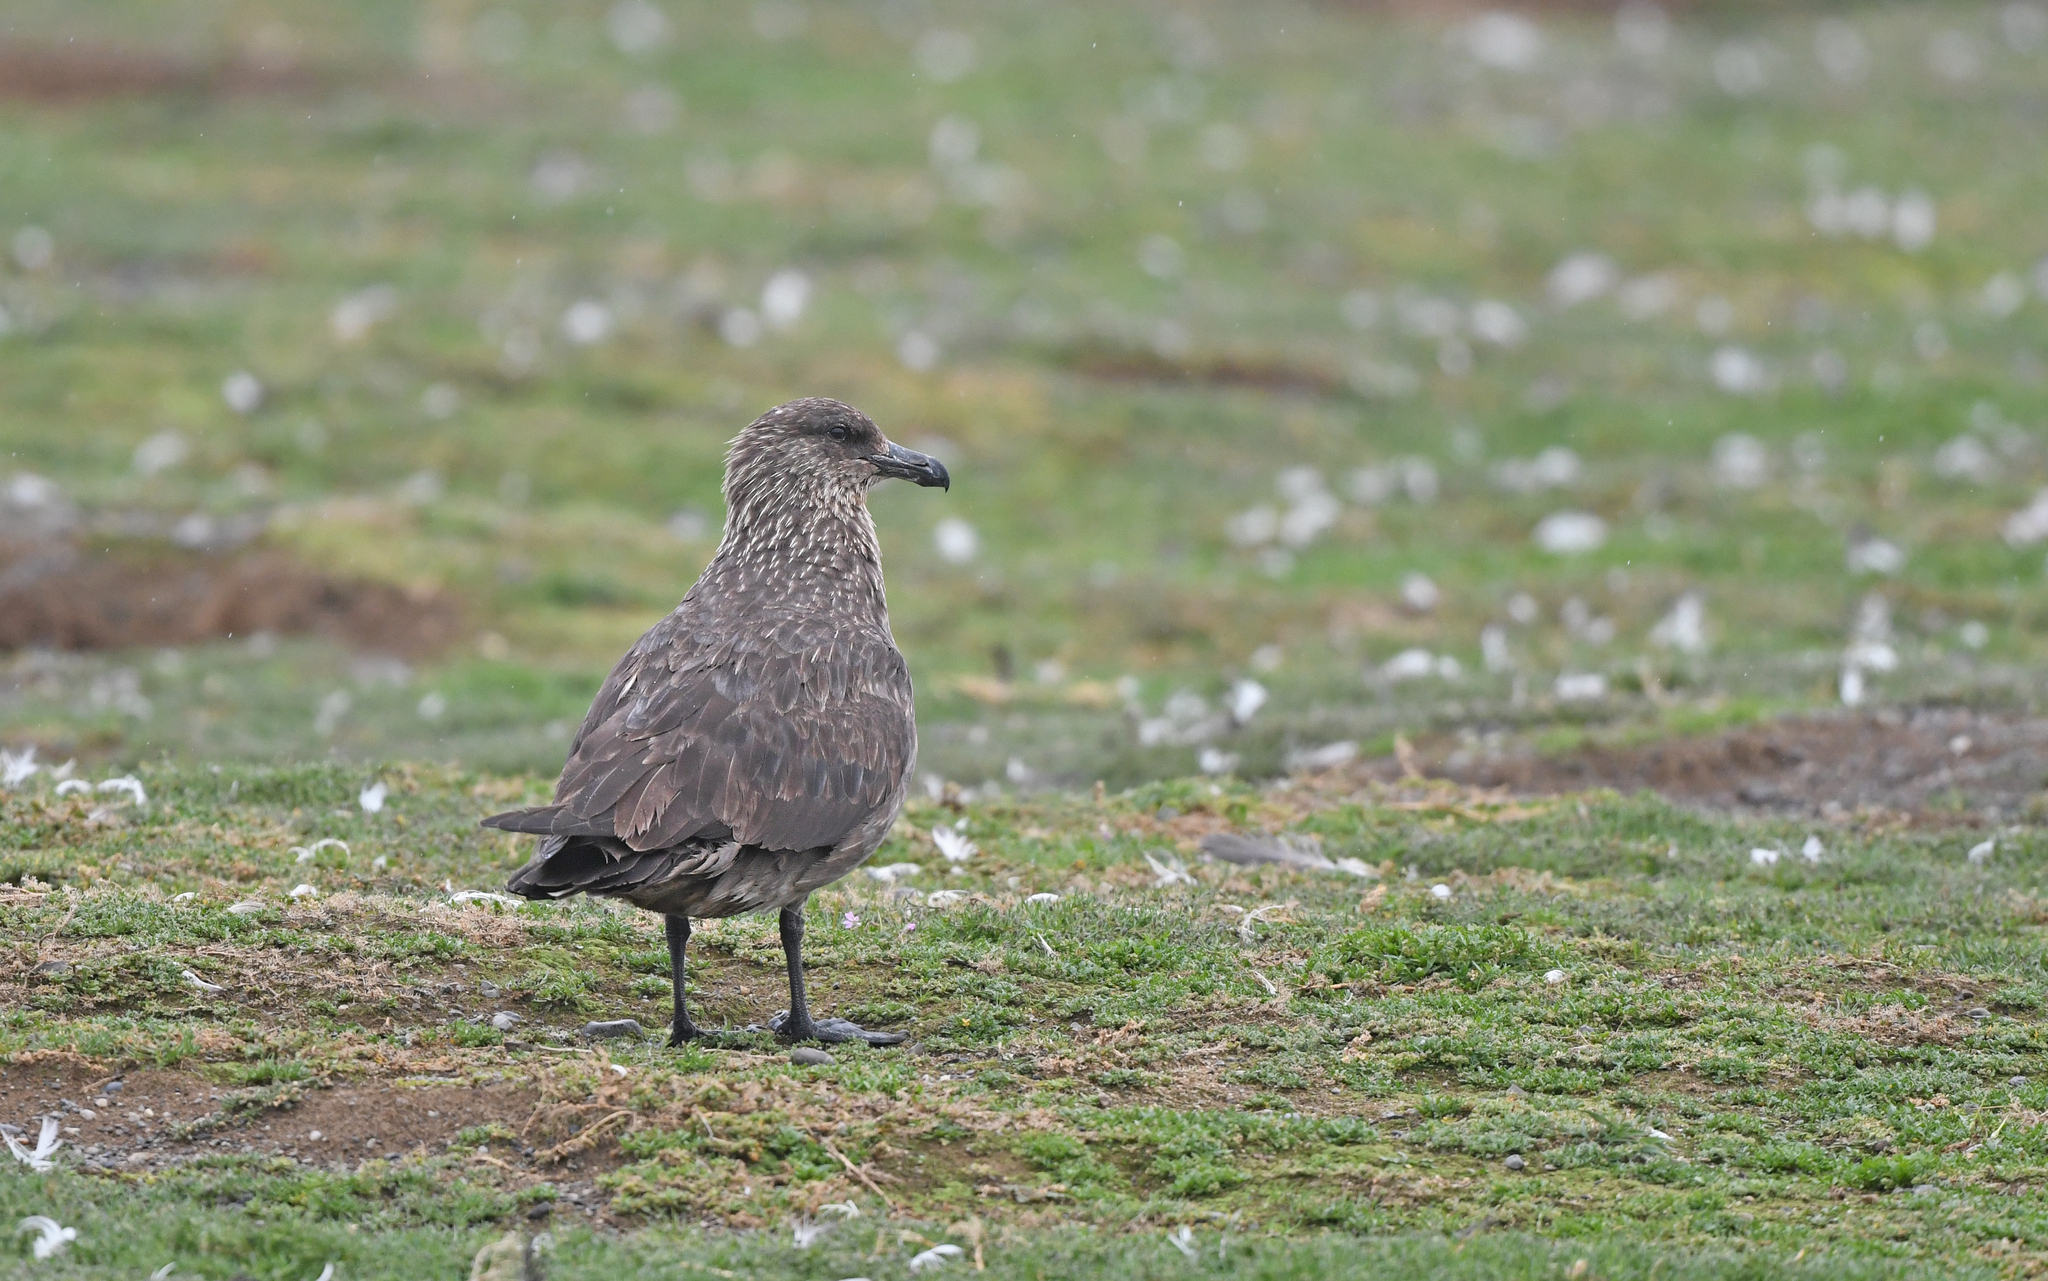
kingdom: Animalia
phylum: Chordata
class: Aves
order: Charadriiformes
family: Stercorariidae
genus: Stercorarius
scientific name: Stercorarius chilensis
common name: Chilean skua
